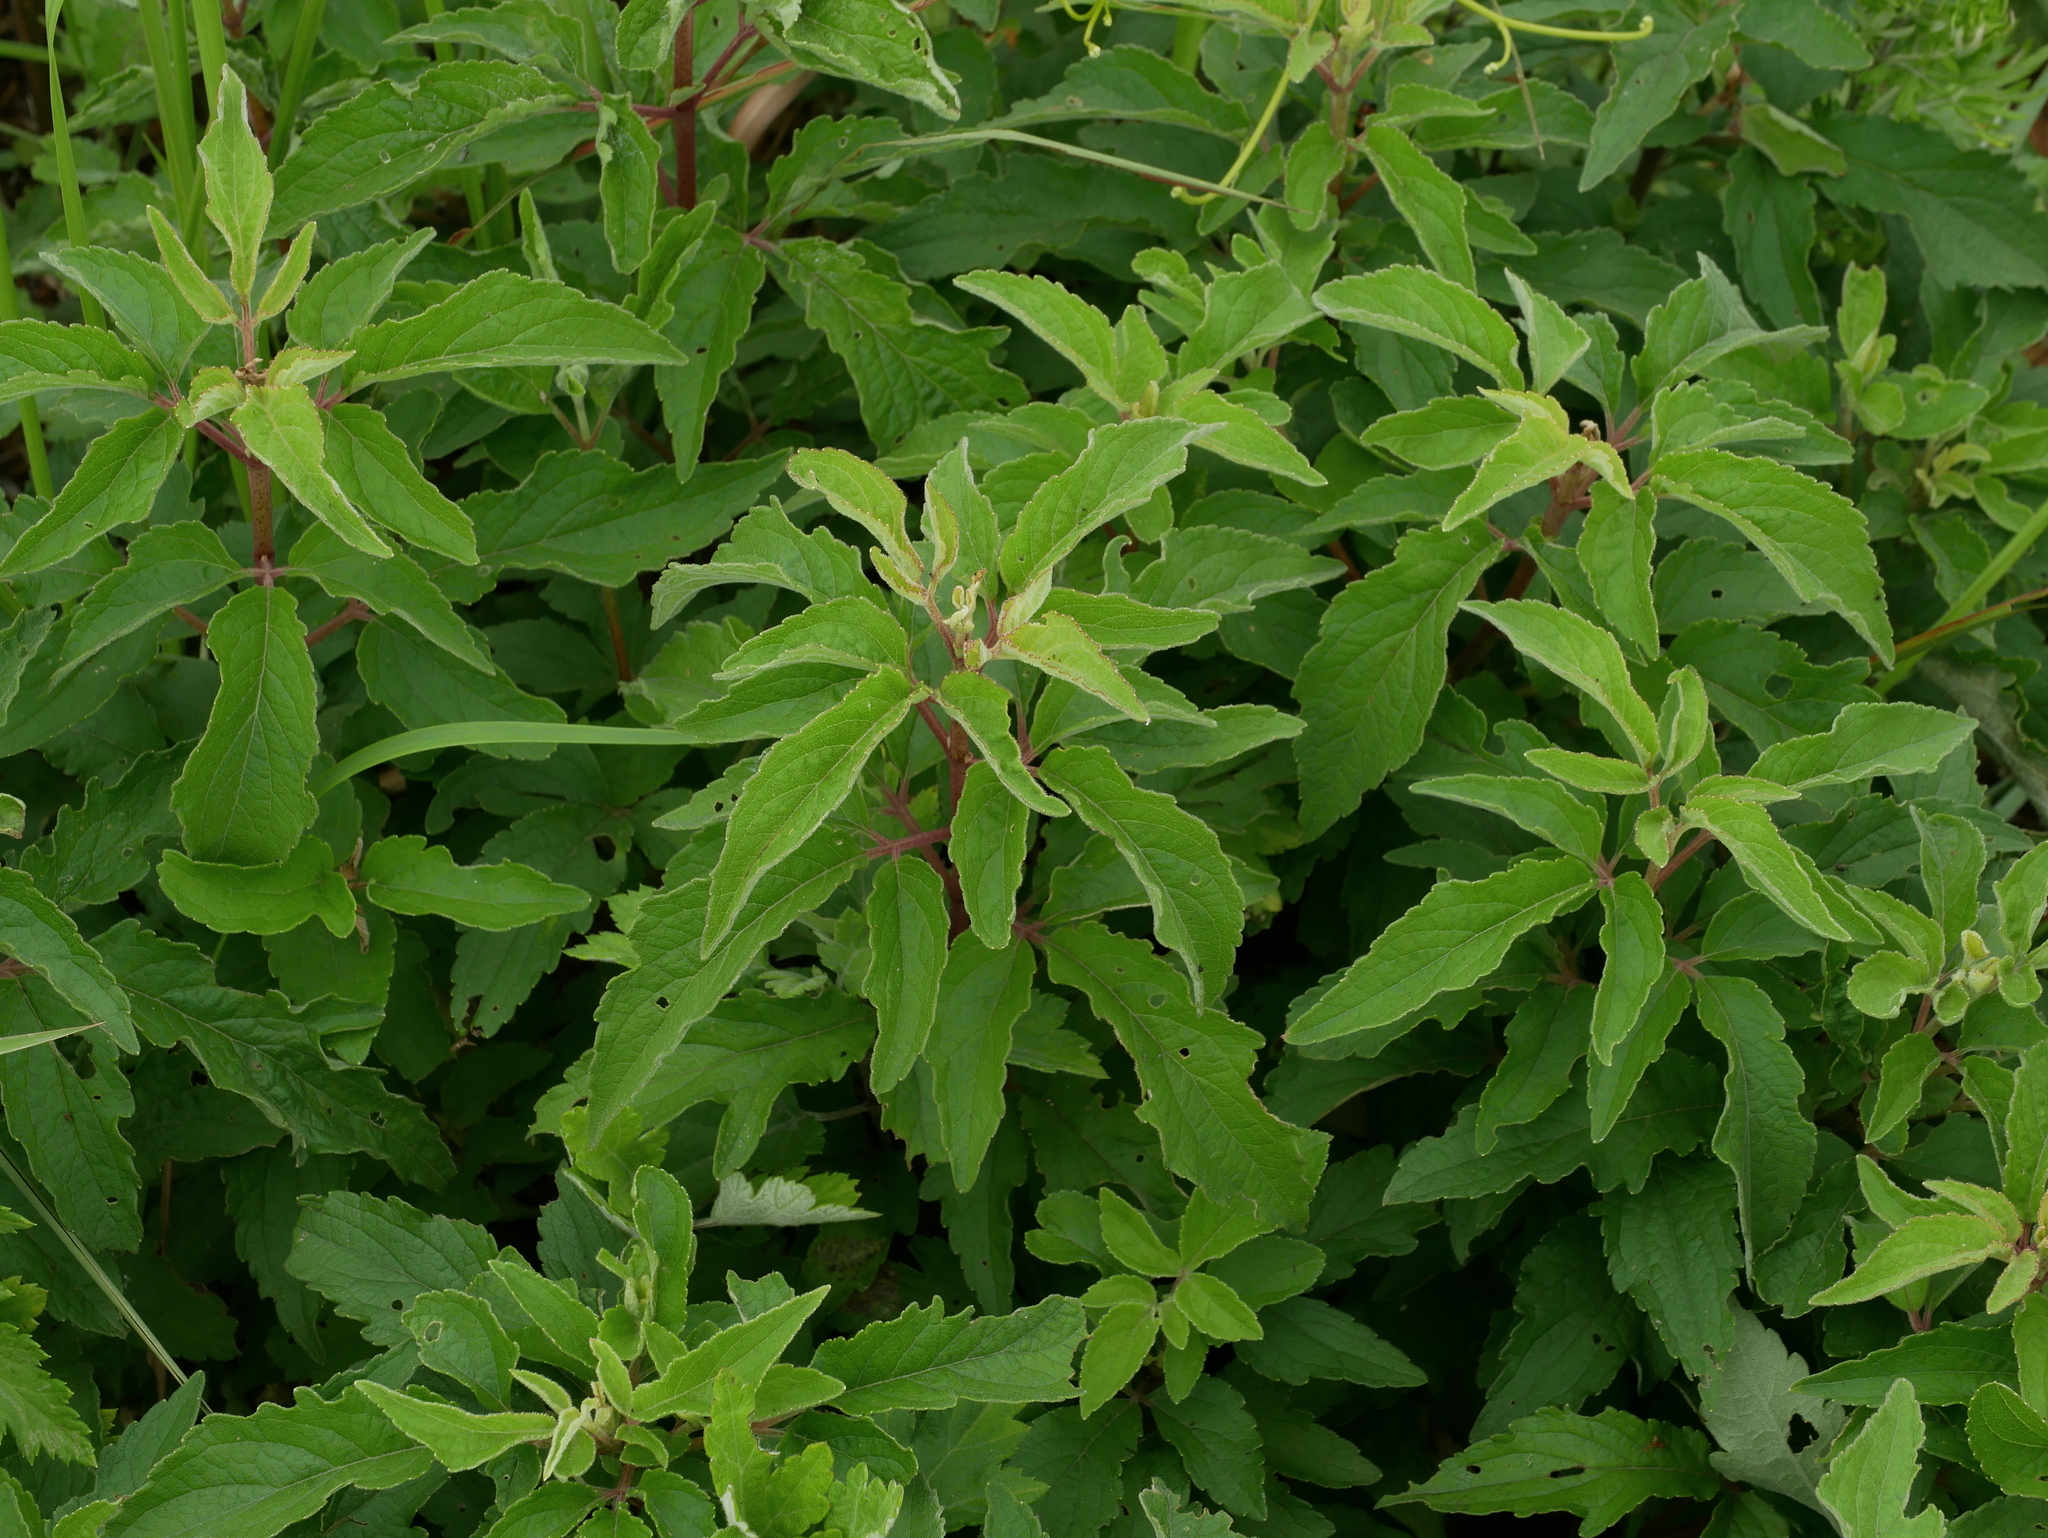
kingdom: Plantae
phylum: Tracheophyta
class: Magnoliopsida
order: Asterales
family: Asteraceae
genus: Eupatorium
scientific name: Eupatorium formosanum
